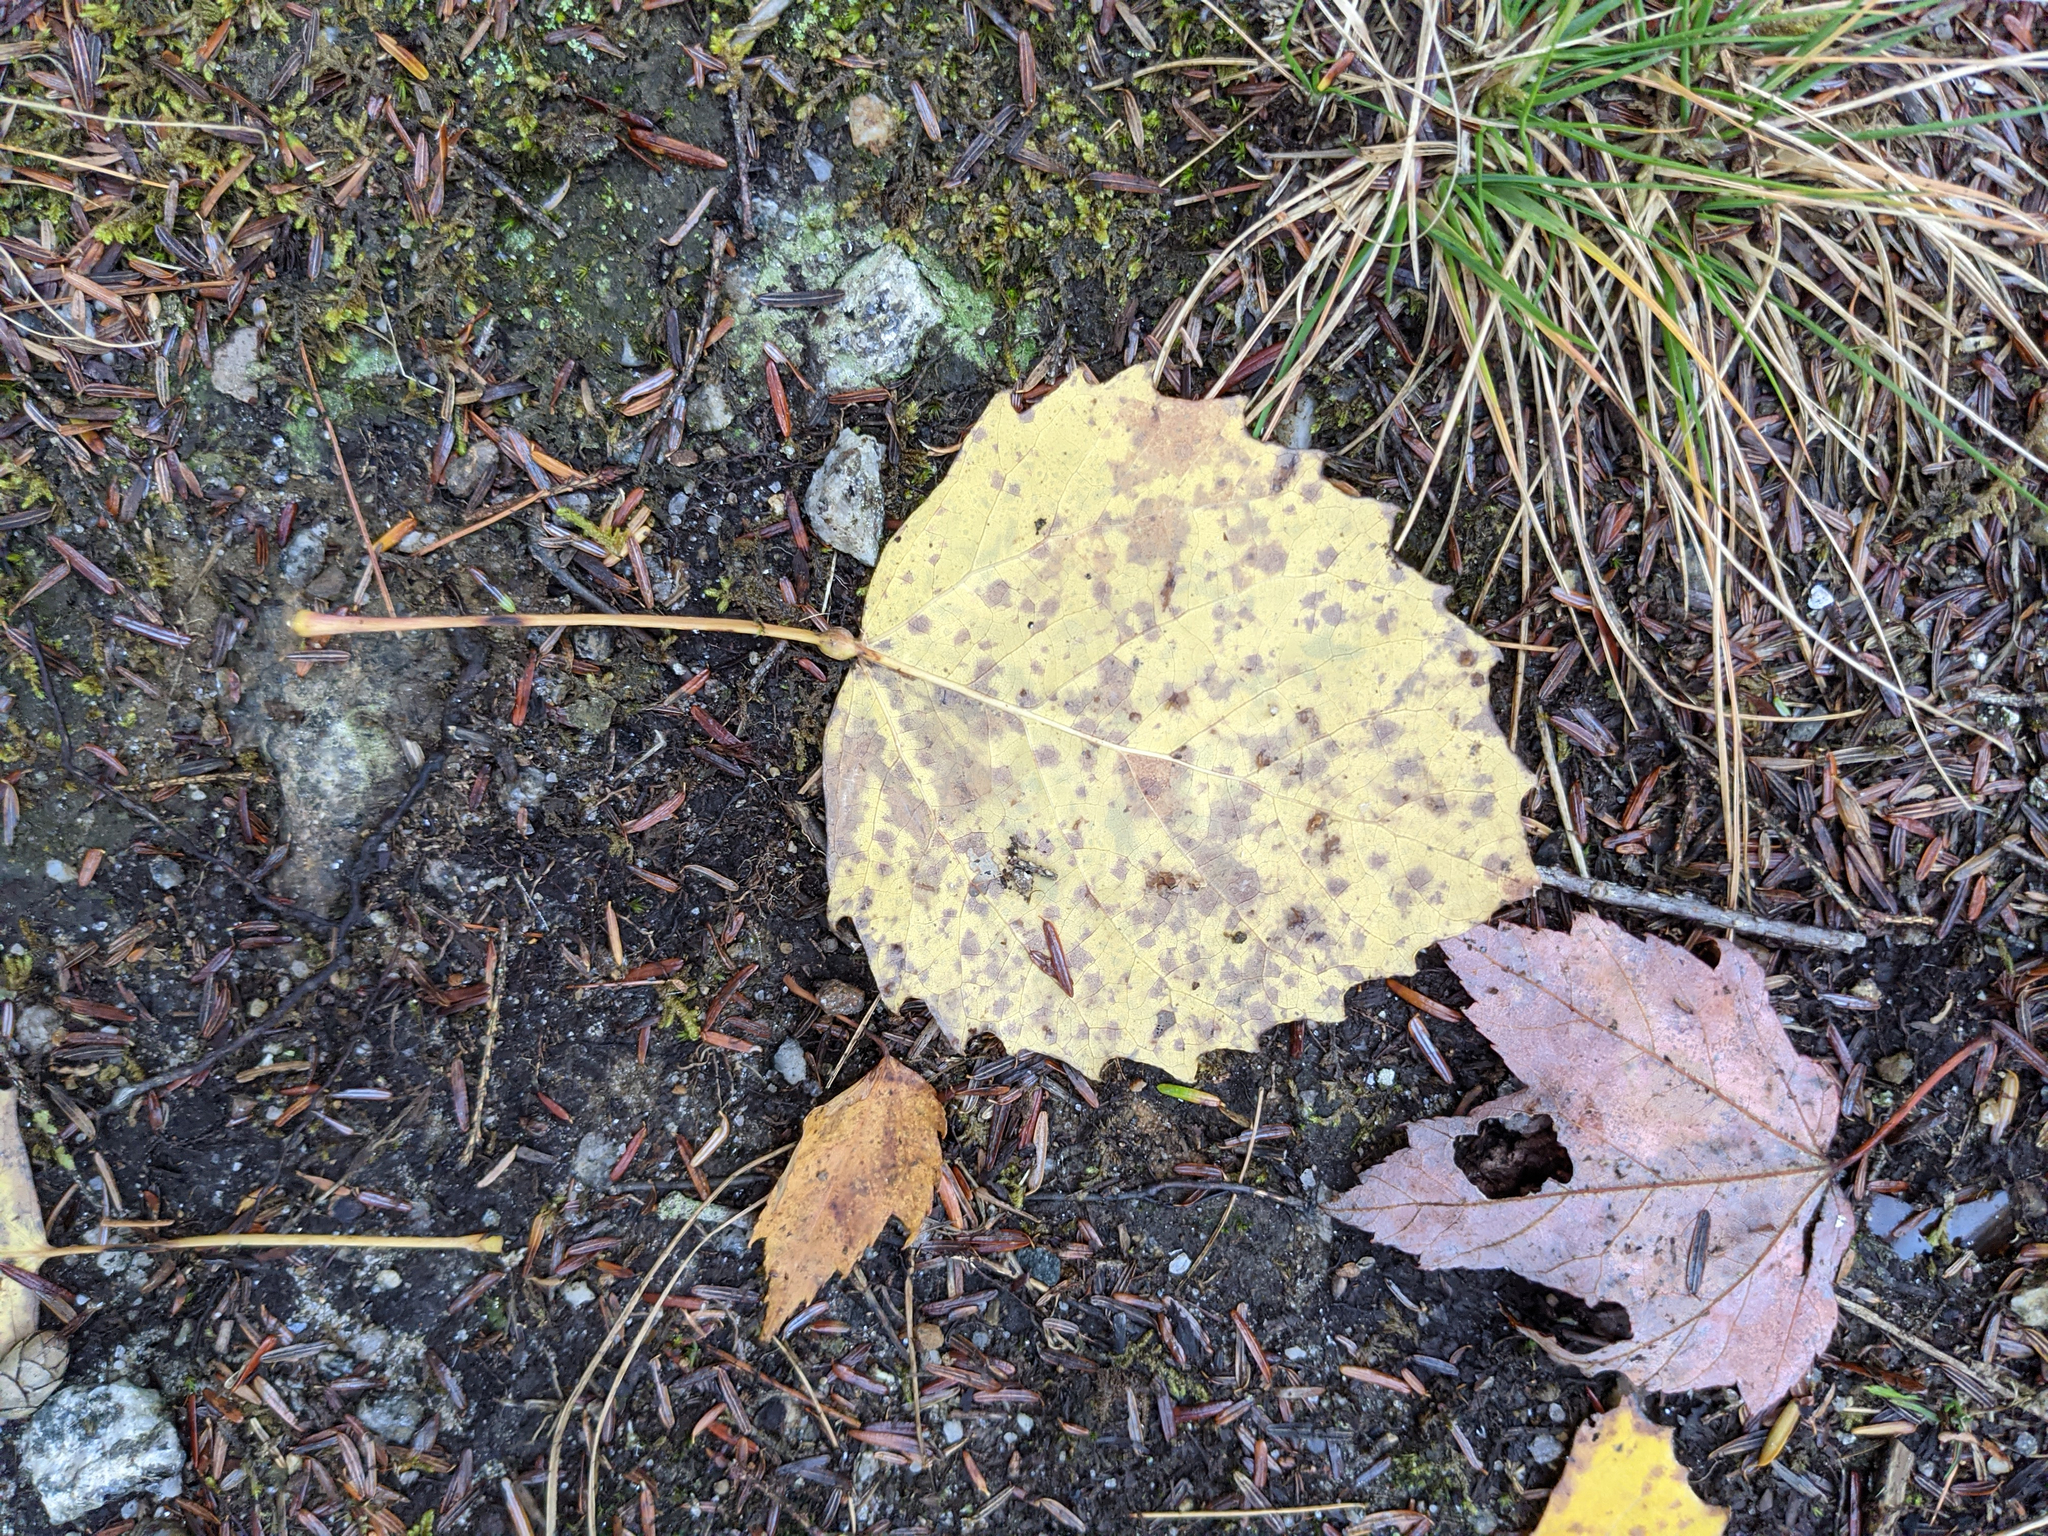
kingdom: Plantae
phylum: Tracheophyta
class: Magnoliopsida
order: Malpighiales
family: Salicaceae
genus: Populus
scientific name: Populus grandidentata
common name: Bigtooth aspen
